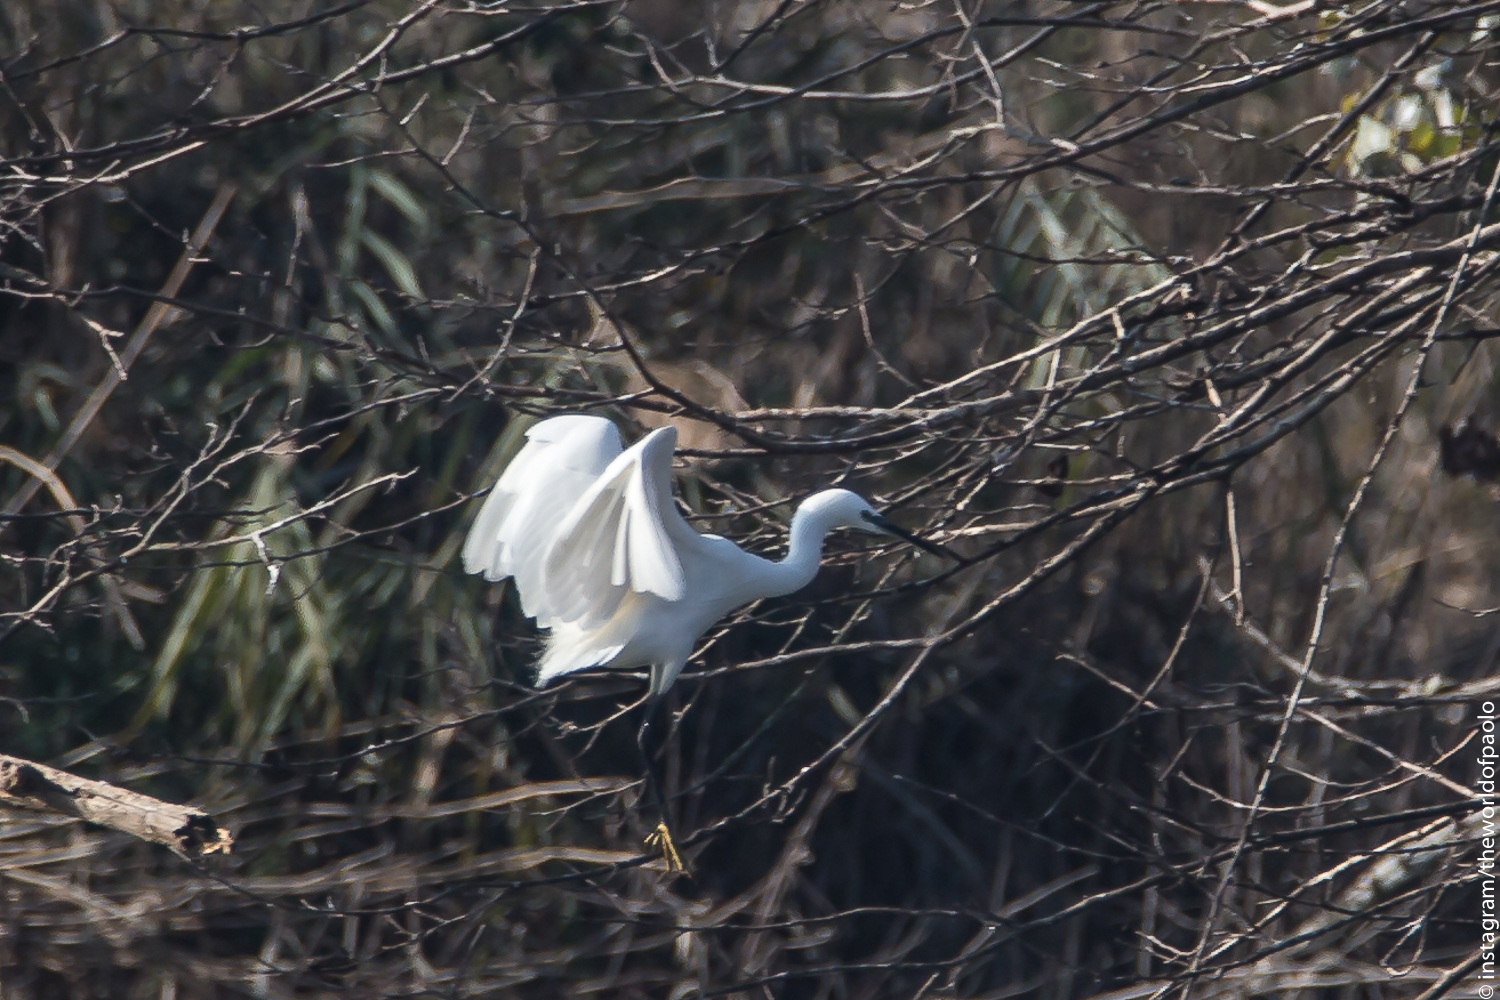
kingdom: Animalia
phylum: Chordata
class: Aves
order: Pelecaniformes
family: Ardeidae
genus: Egretta
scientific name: Egretta garzetta
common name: Little egret
